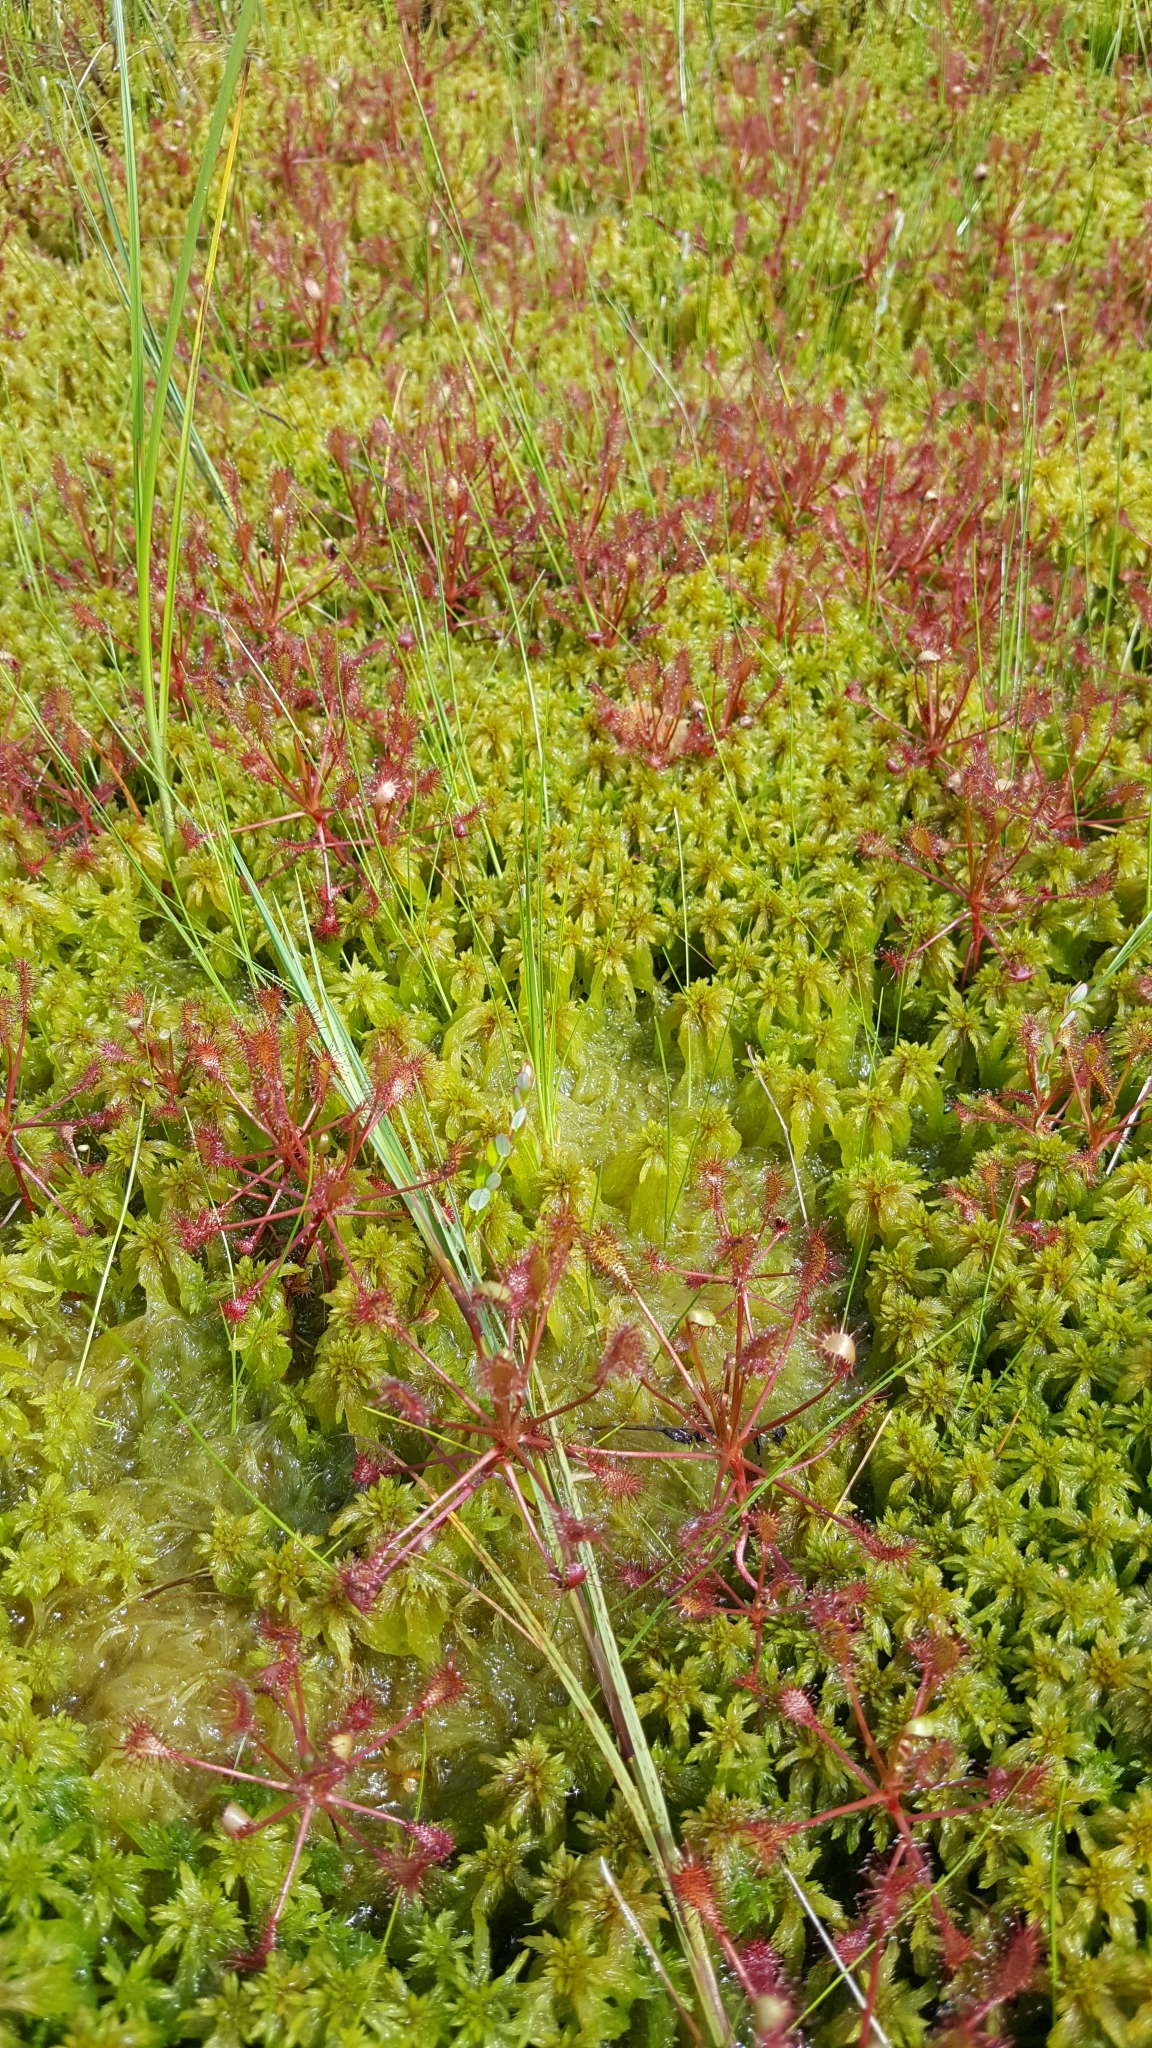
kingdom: Plantae
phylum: Tracheophyta
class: Magnoliopsida
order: Caryophyllales
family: Droseraceae
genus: Drosera
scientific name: Drosera intermedia
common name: Oblong-leaved sundew
